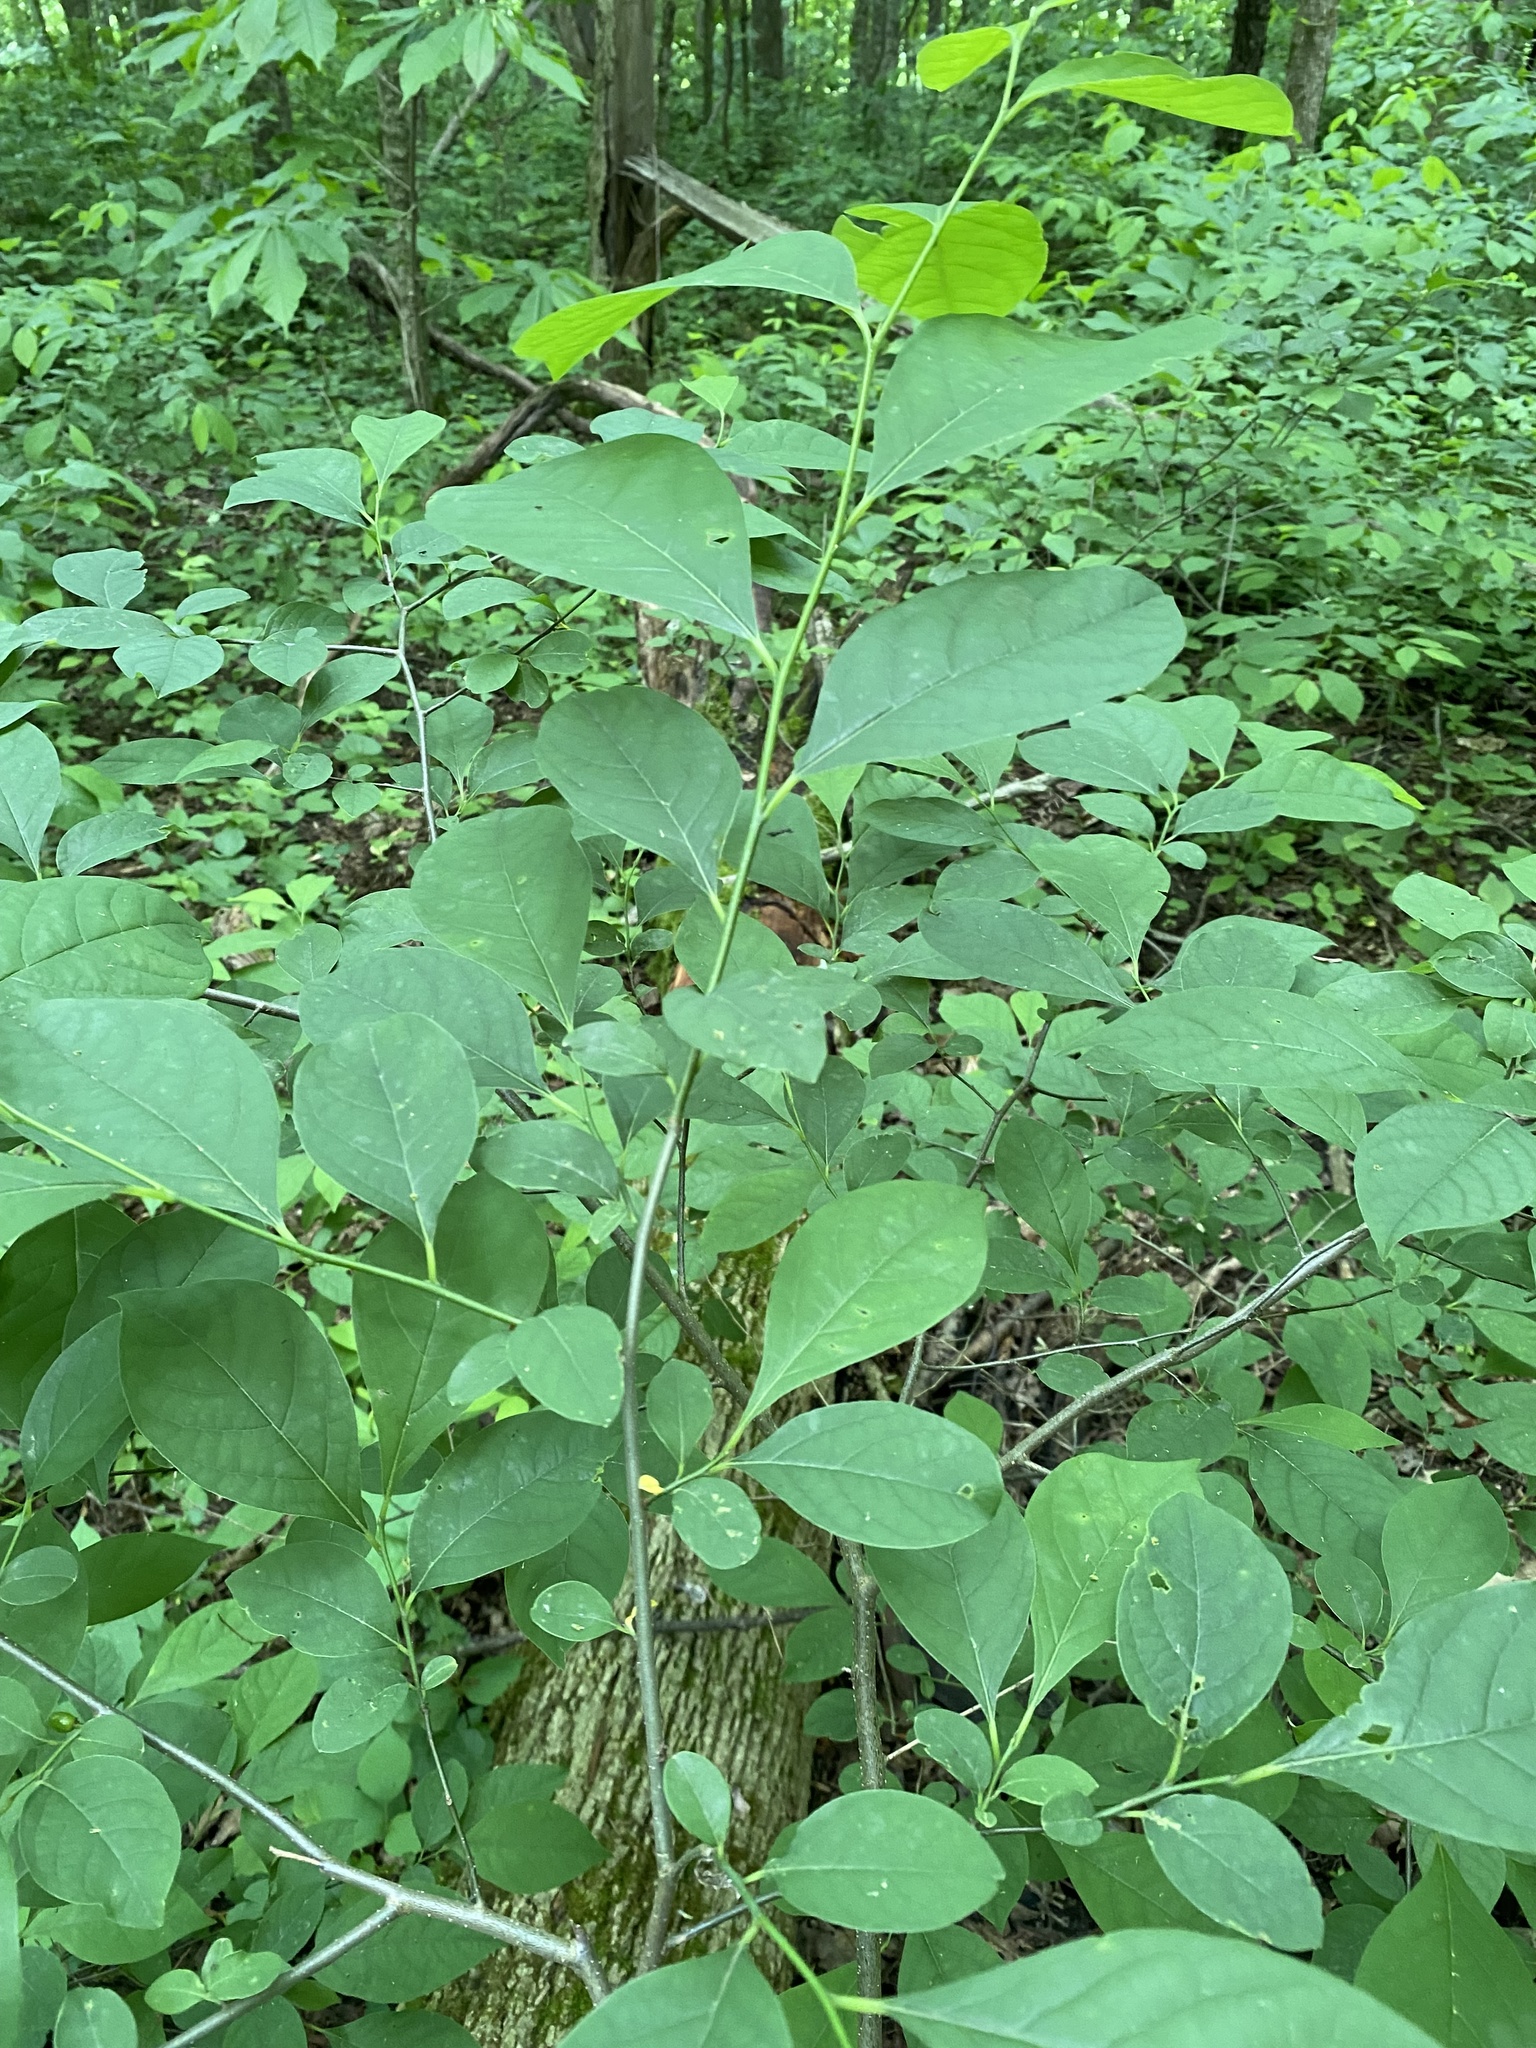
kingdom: Plantae
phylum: Tracheophyta
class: Magnoliopsida
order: Laurales
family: Lauraceae
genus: Lindera
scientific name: Lindera benzoin
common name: Spicebush
